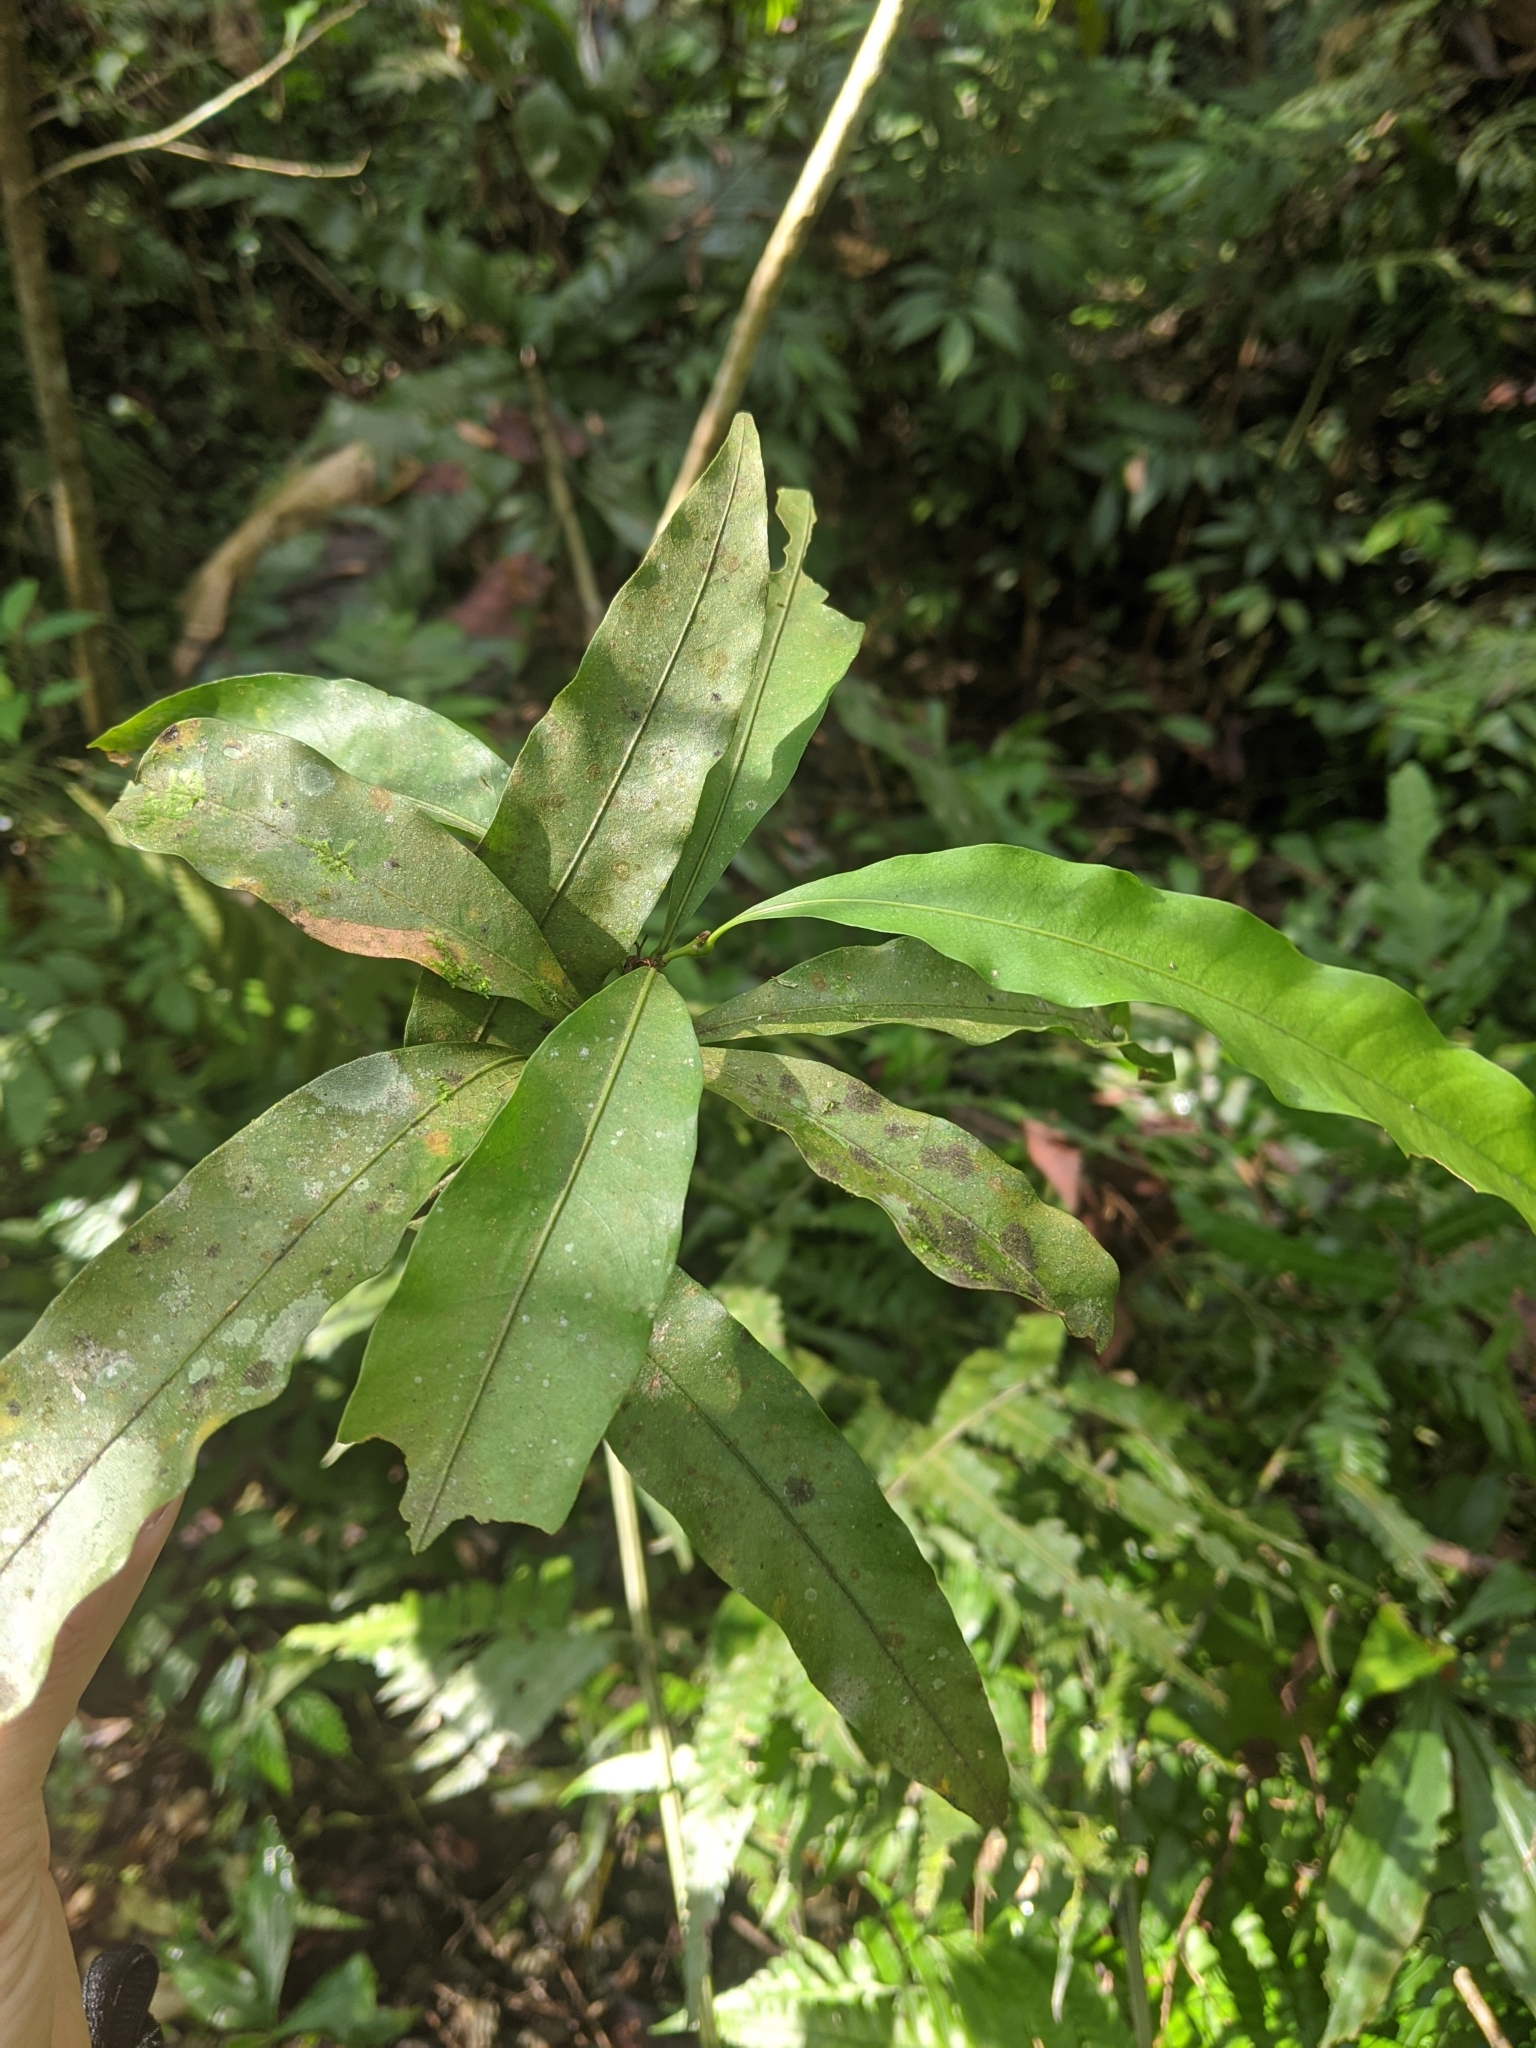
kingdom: Plantae
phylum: Tracheophyta
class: Magnoliopsida
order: Fagales
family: Fagaceae
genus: Lithocarpus
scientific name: Lithocarpus hancei
